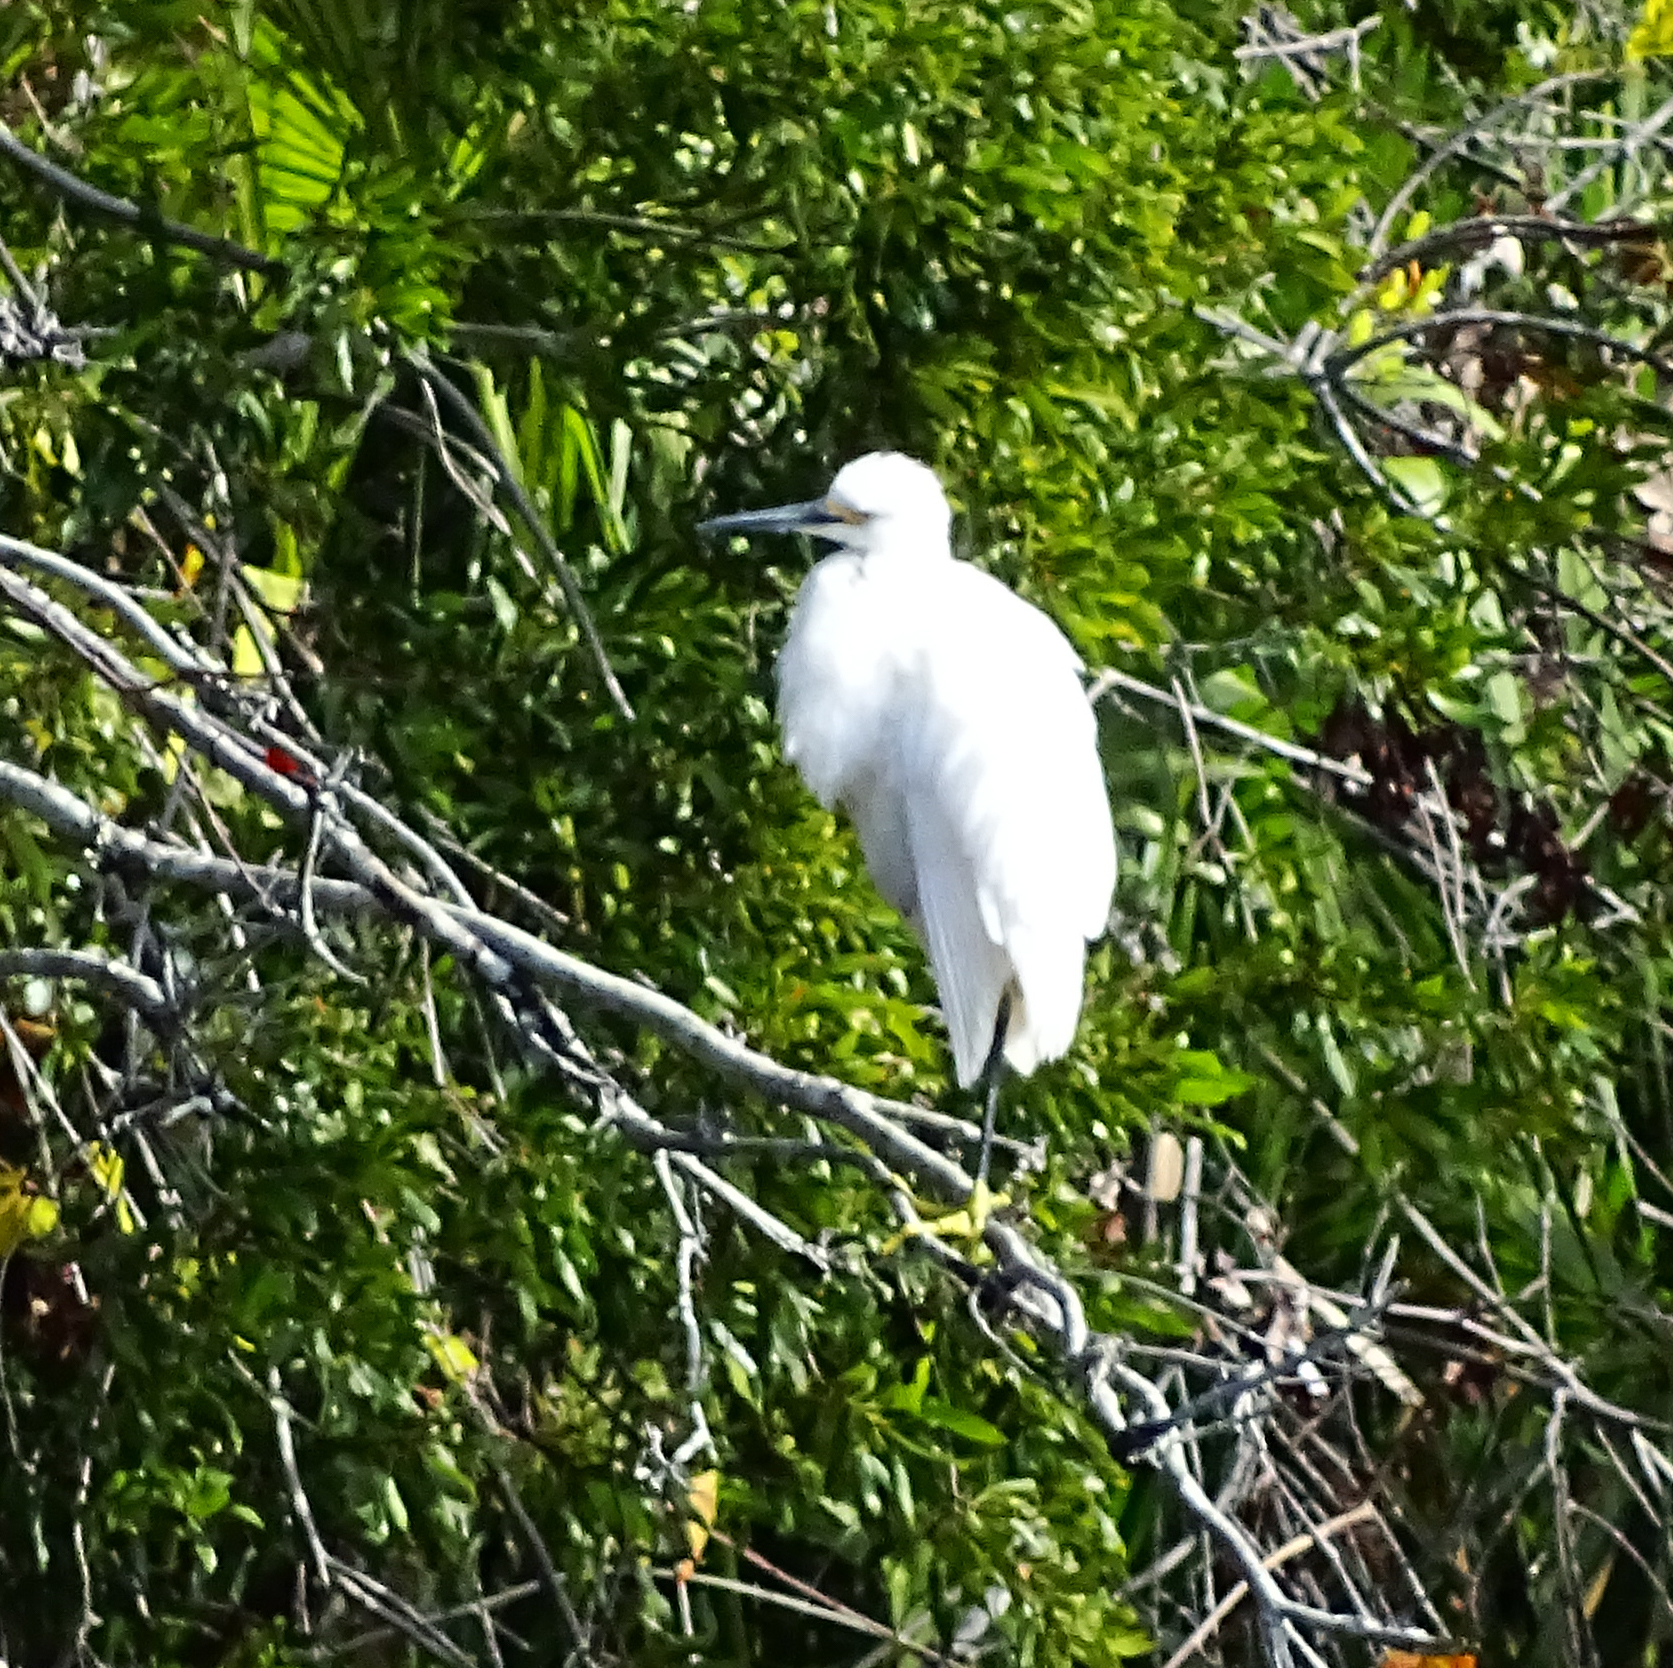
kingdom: Animalia
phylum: Chordata
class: Aves
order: Pelecaniformes
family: Ardeidae
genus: Egretta
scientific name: Egretta thula
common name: Snowy egret
